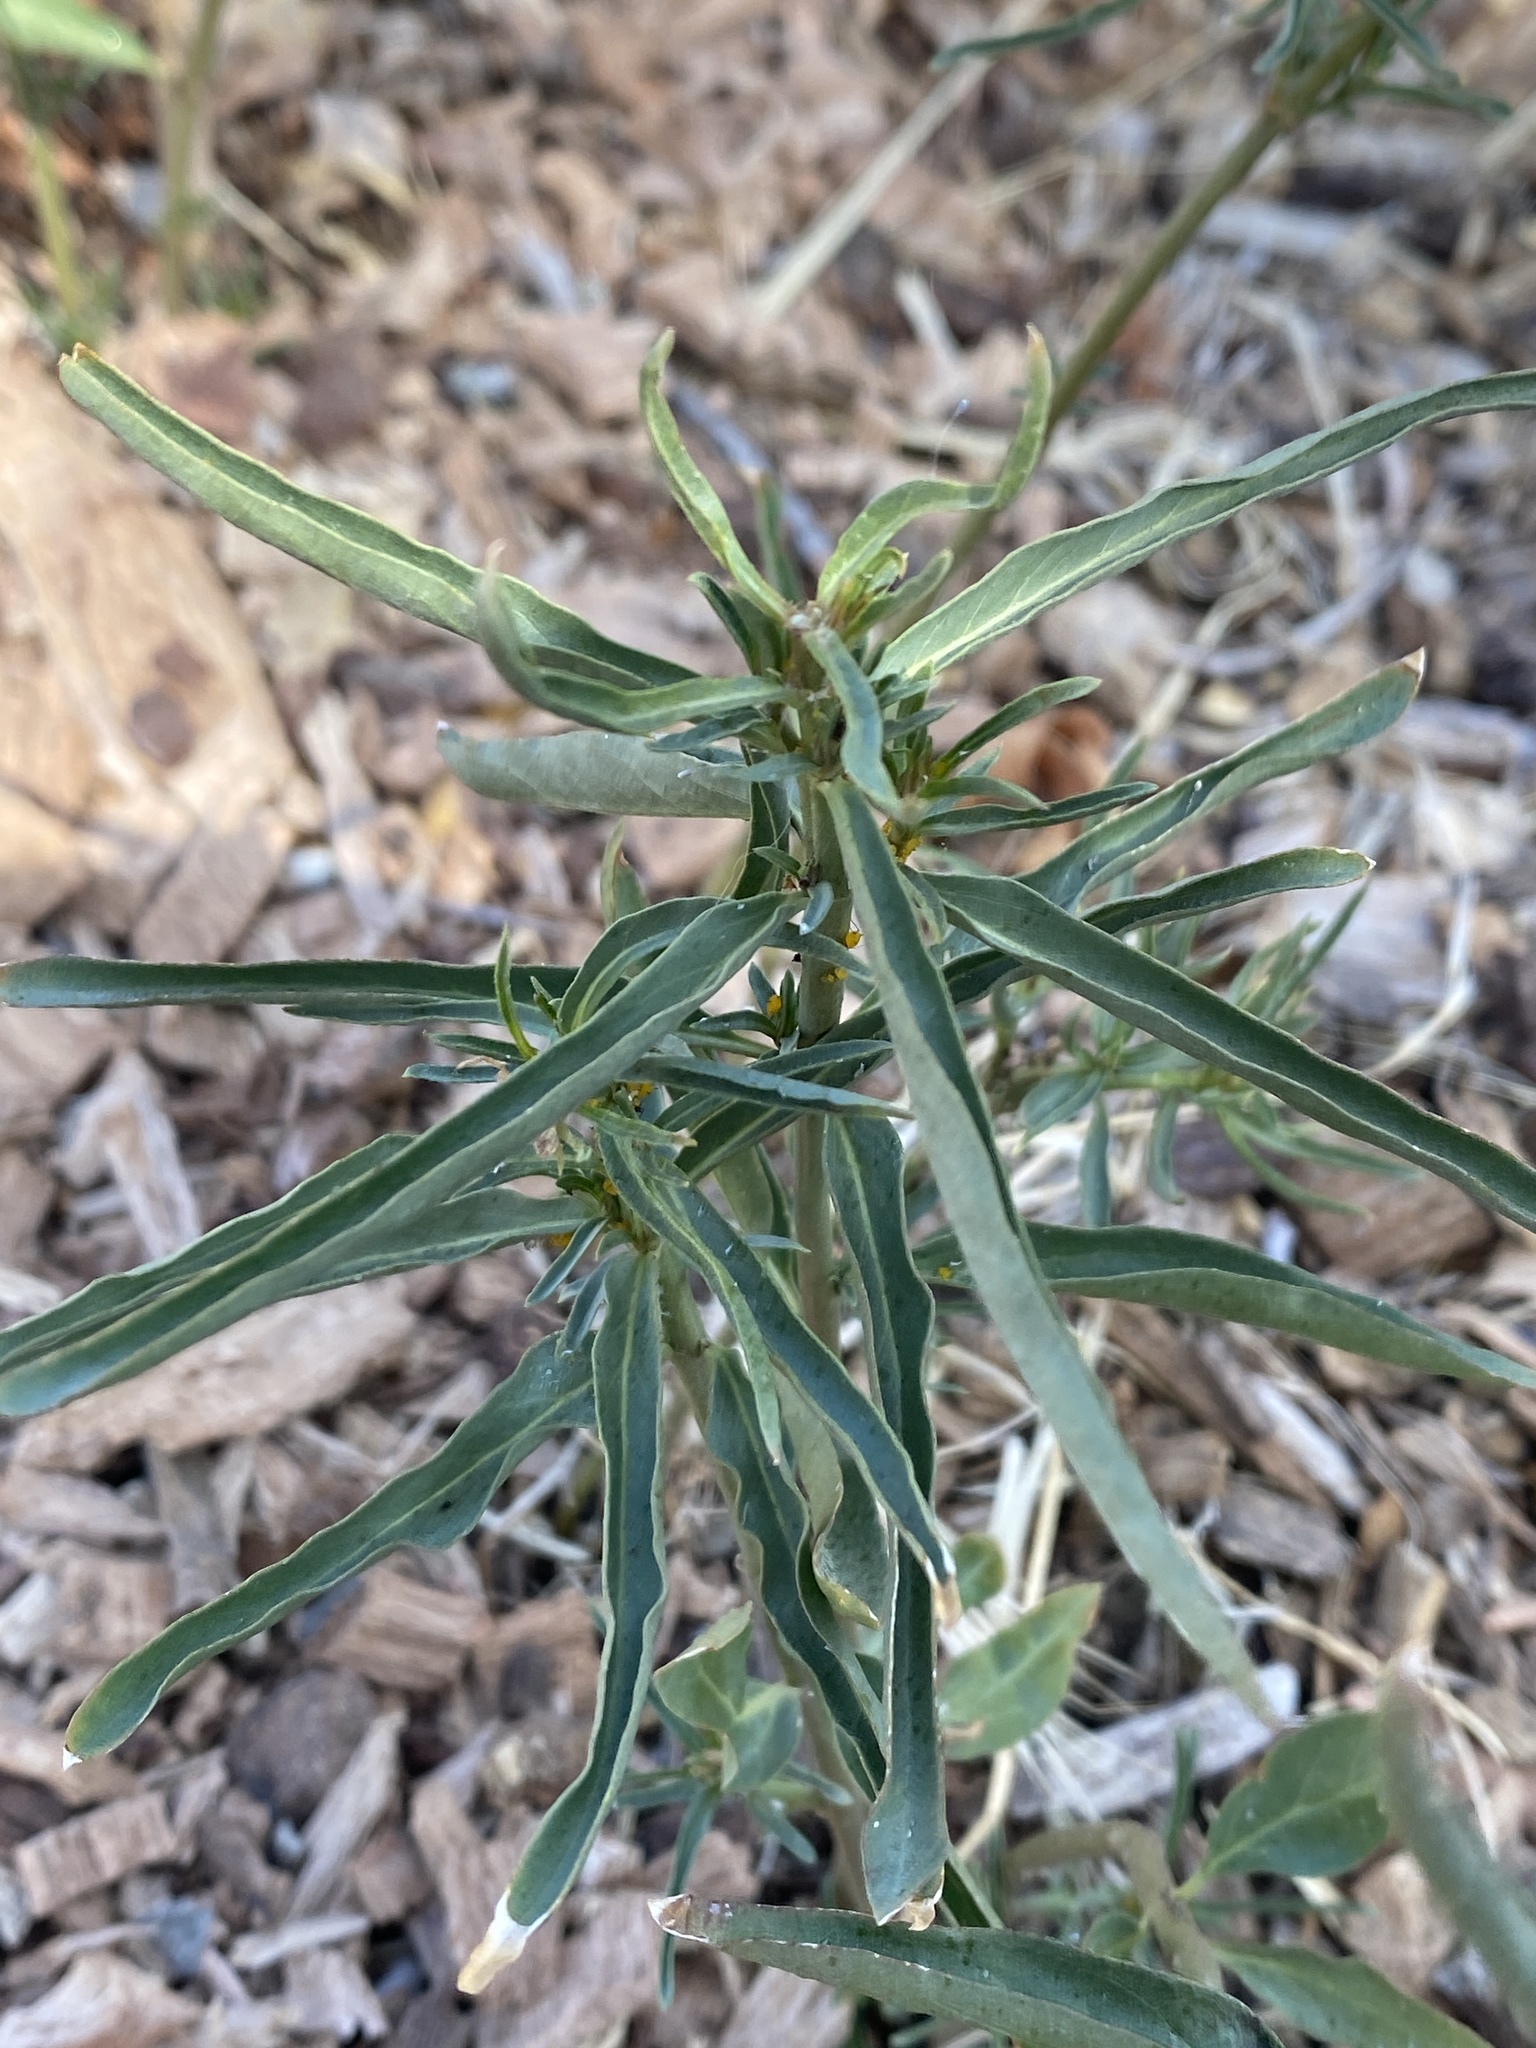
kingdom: Plantae
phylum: Tracheophyta
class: Magnoliopsida
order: Gentianales
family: Apocynaceae
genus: Asclepias
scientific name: Asclepias fascicularis
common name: Mexican milkweed
